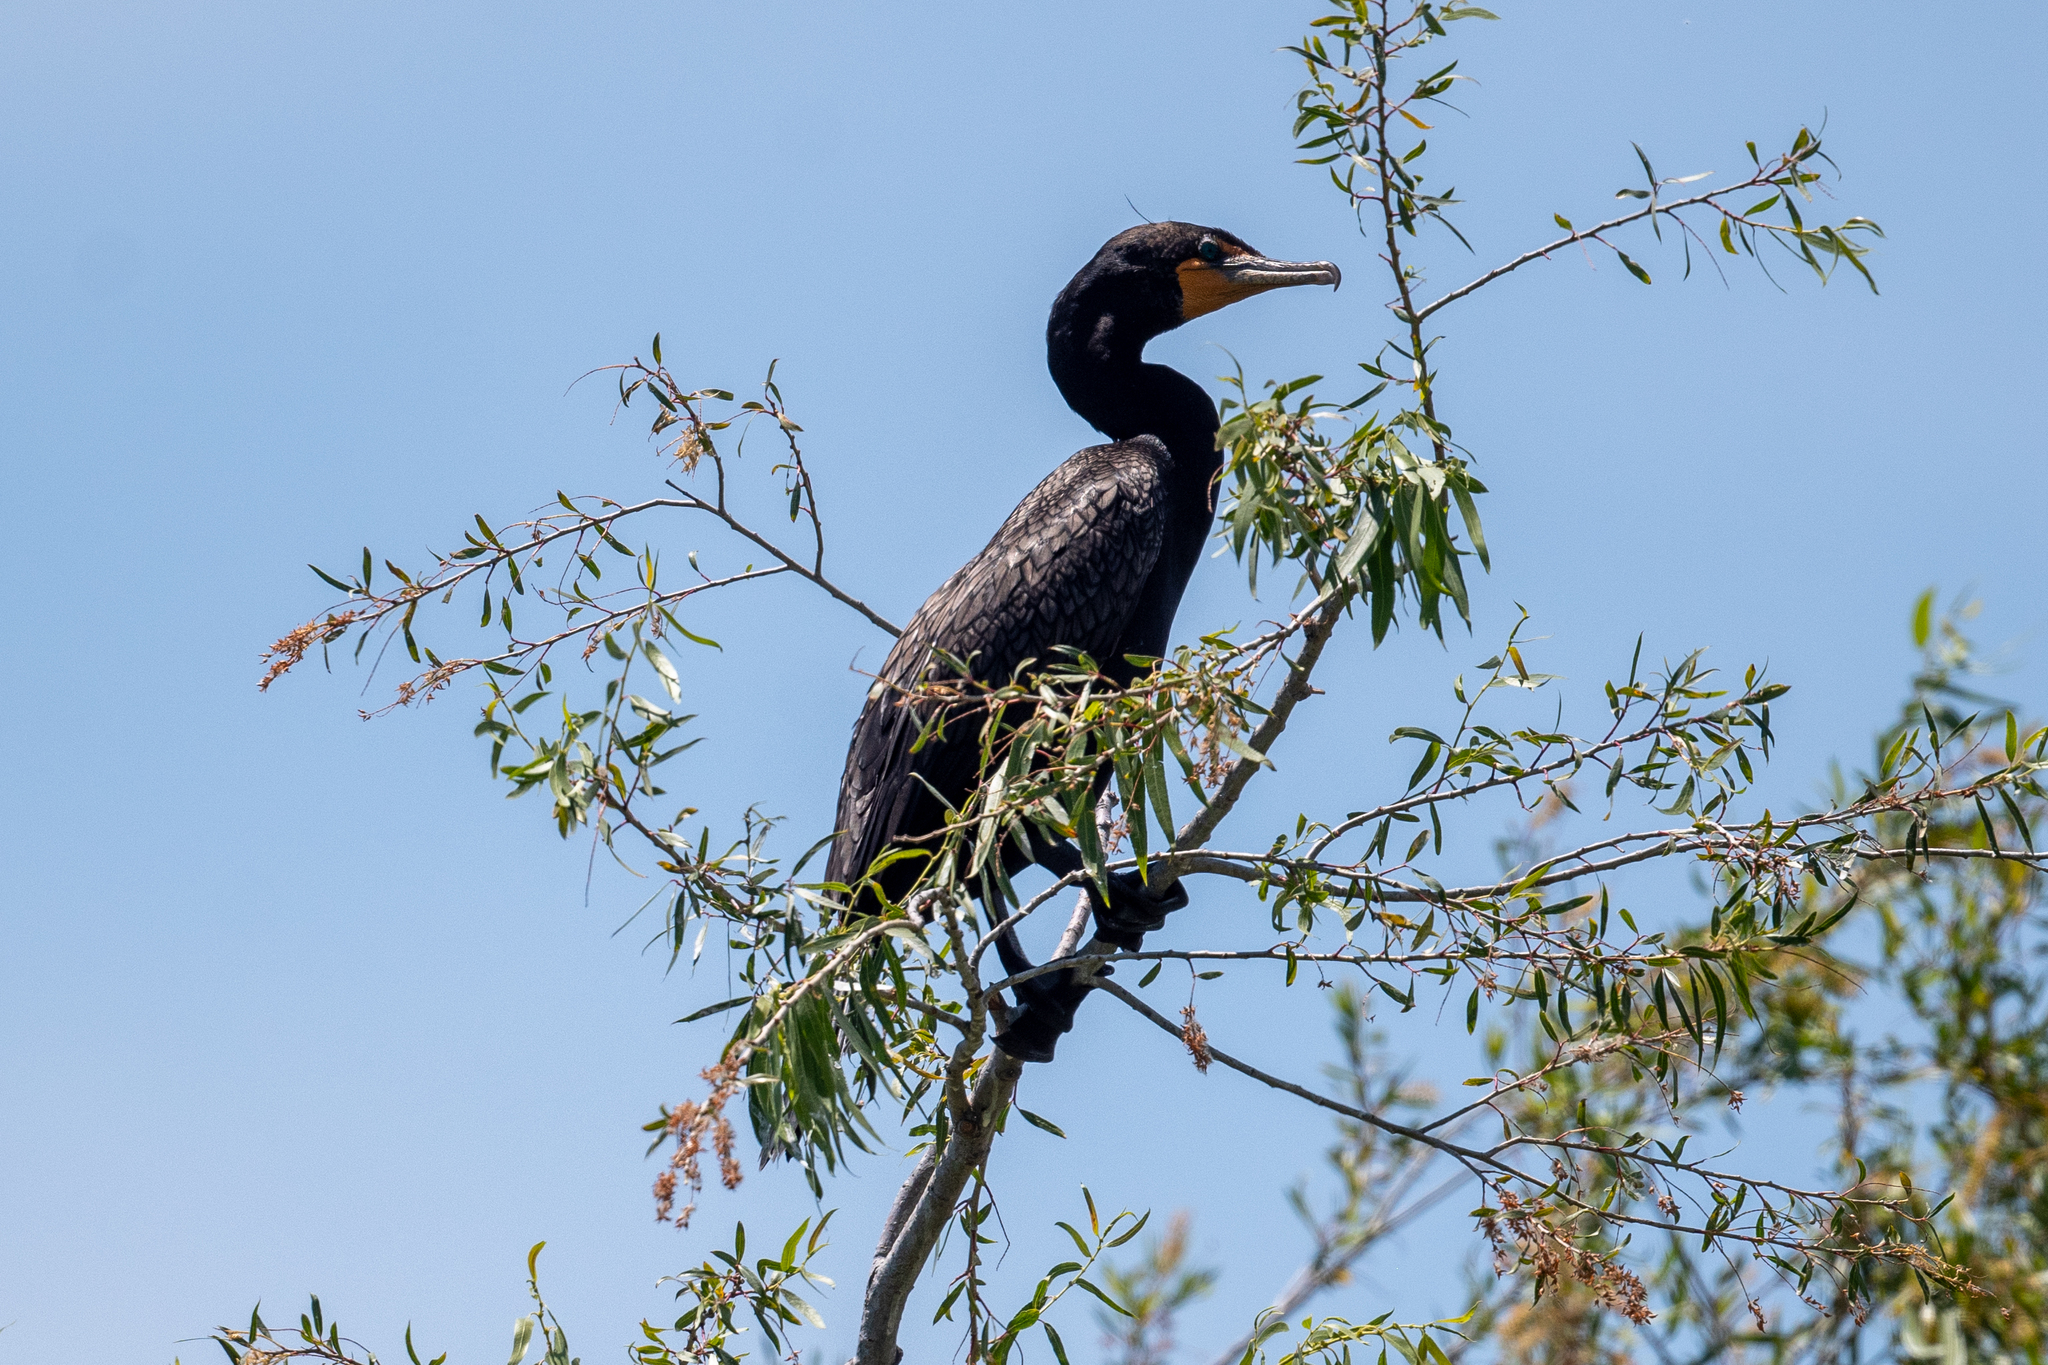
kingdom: Animalia
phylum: Chordata
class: Aves
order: Suliformes
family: Phalacrocoracidae
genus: Phalacrocorax
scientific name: Phalacrocorax auritus
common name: Double-crested cormorant
